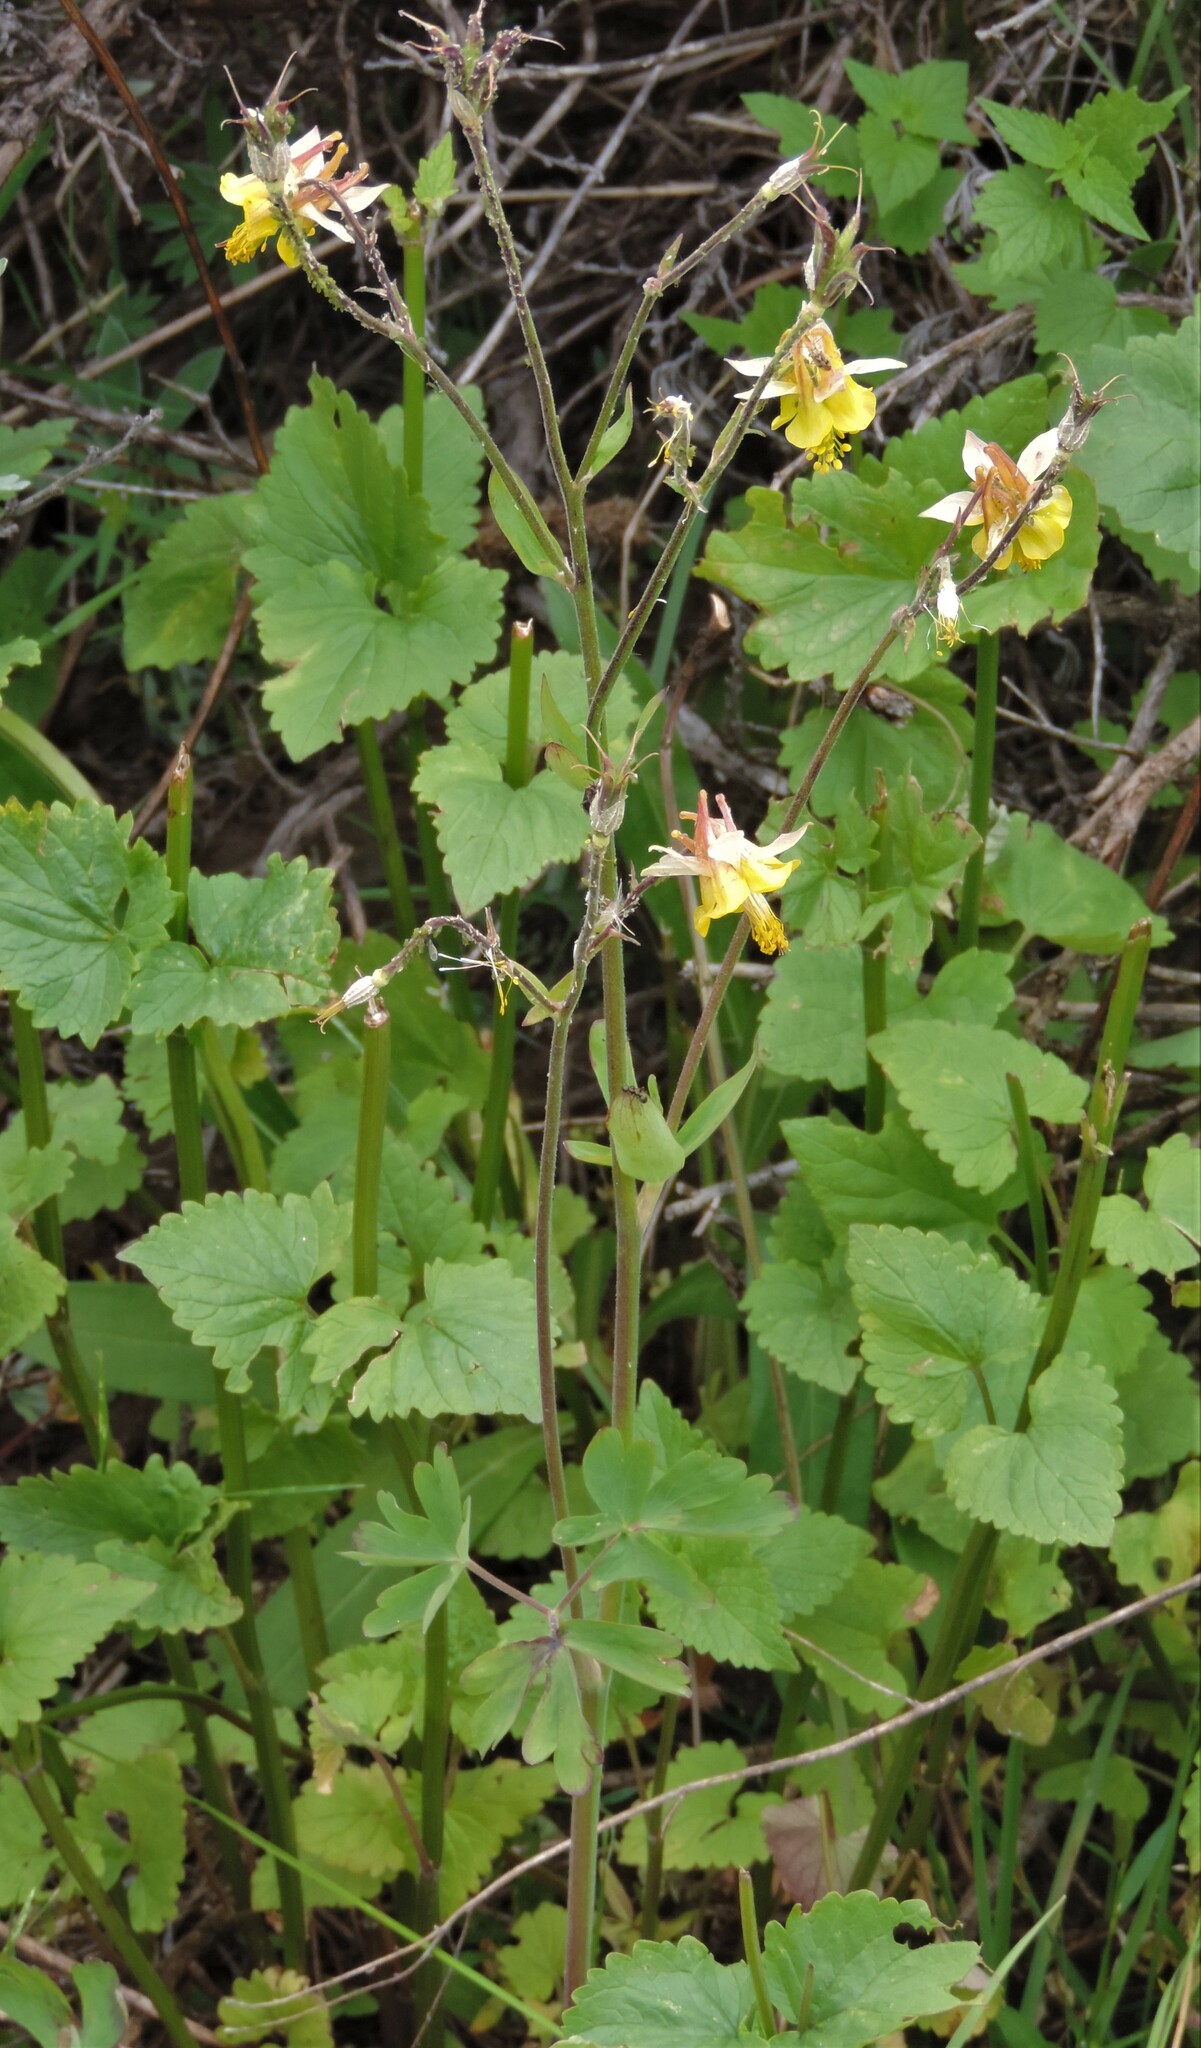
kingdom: Plantae
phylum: Tracheophyta
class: Magnoliopsida
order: Ranunculales
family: Ranunculaceae
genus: Aquilegia
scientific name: Aquilegia flavescens
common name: Yellow columbine
